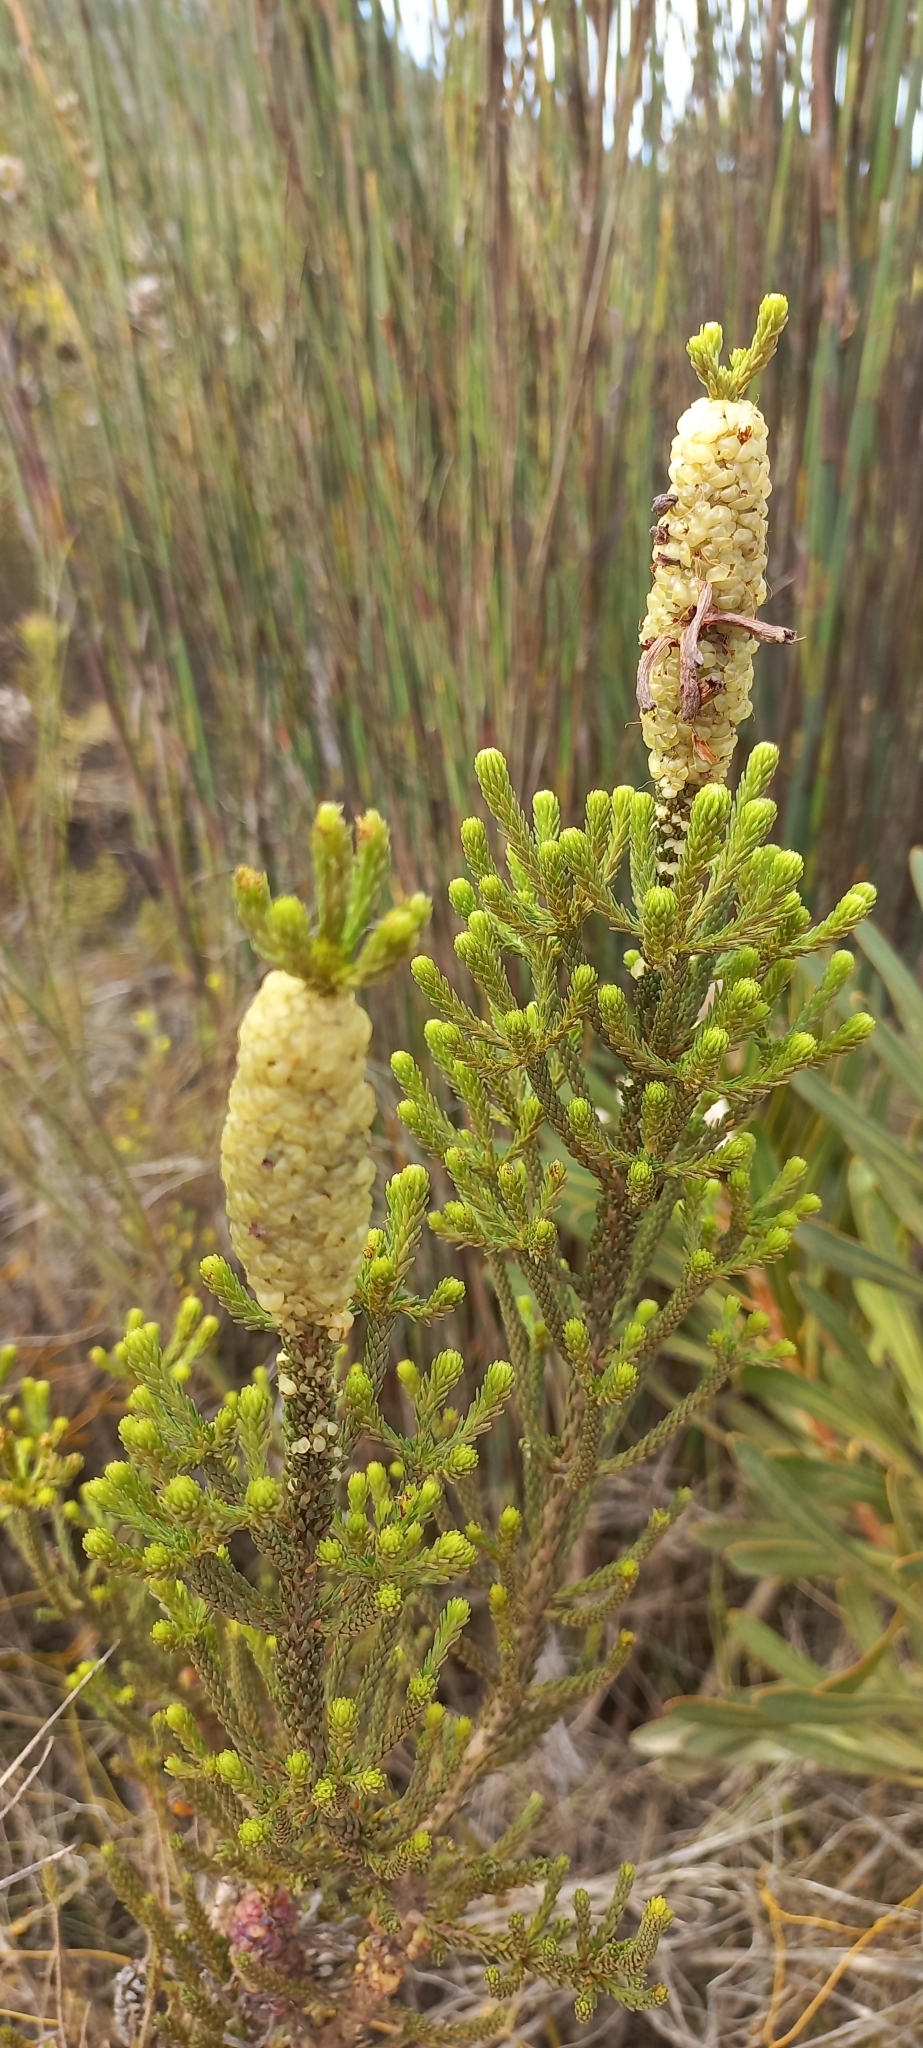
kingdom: Plantae
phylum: Tracheophyta
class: Magnoliopsida
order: Ericales
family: Ericaceae
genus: Erica
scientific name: Erica sessiliflora
